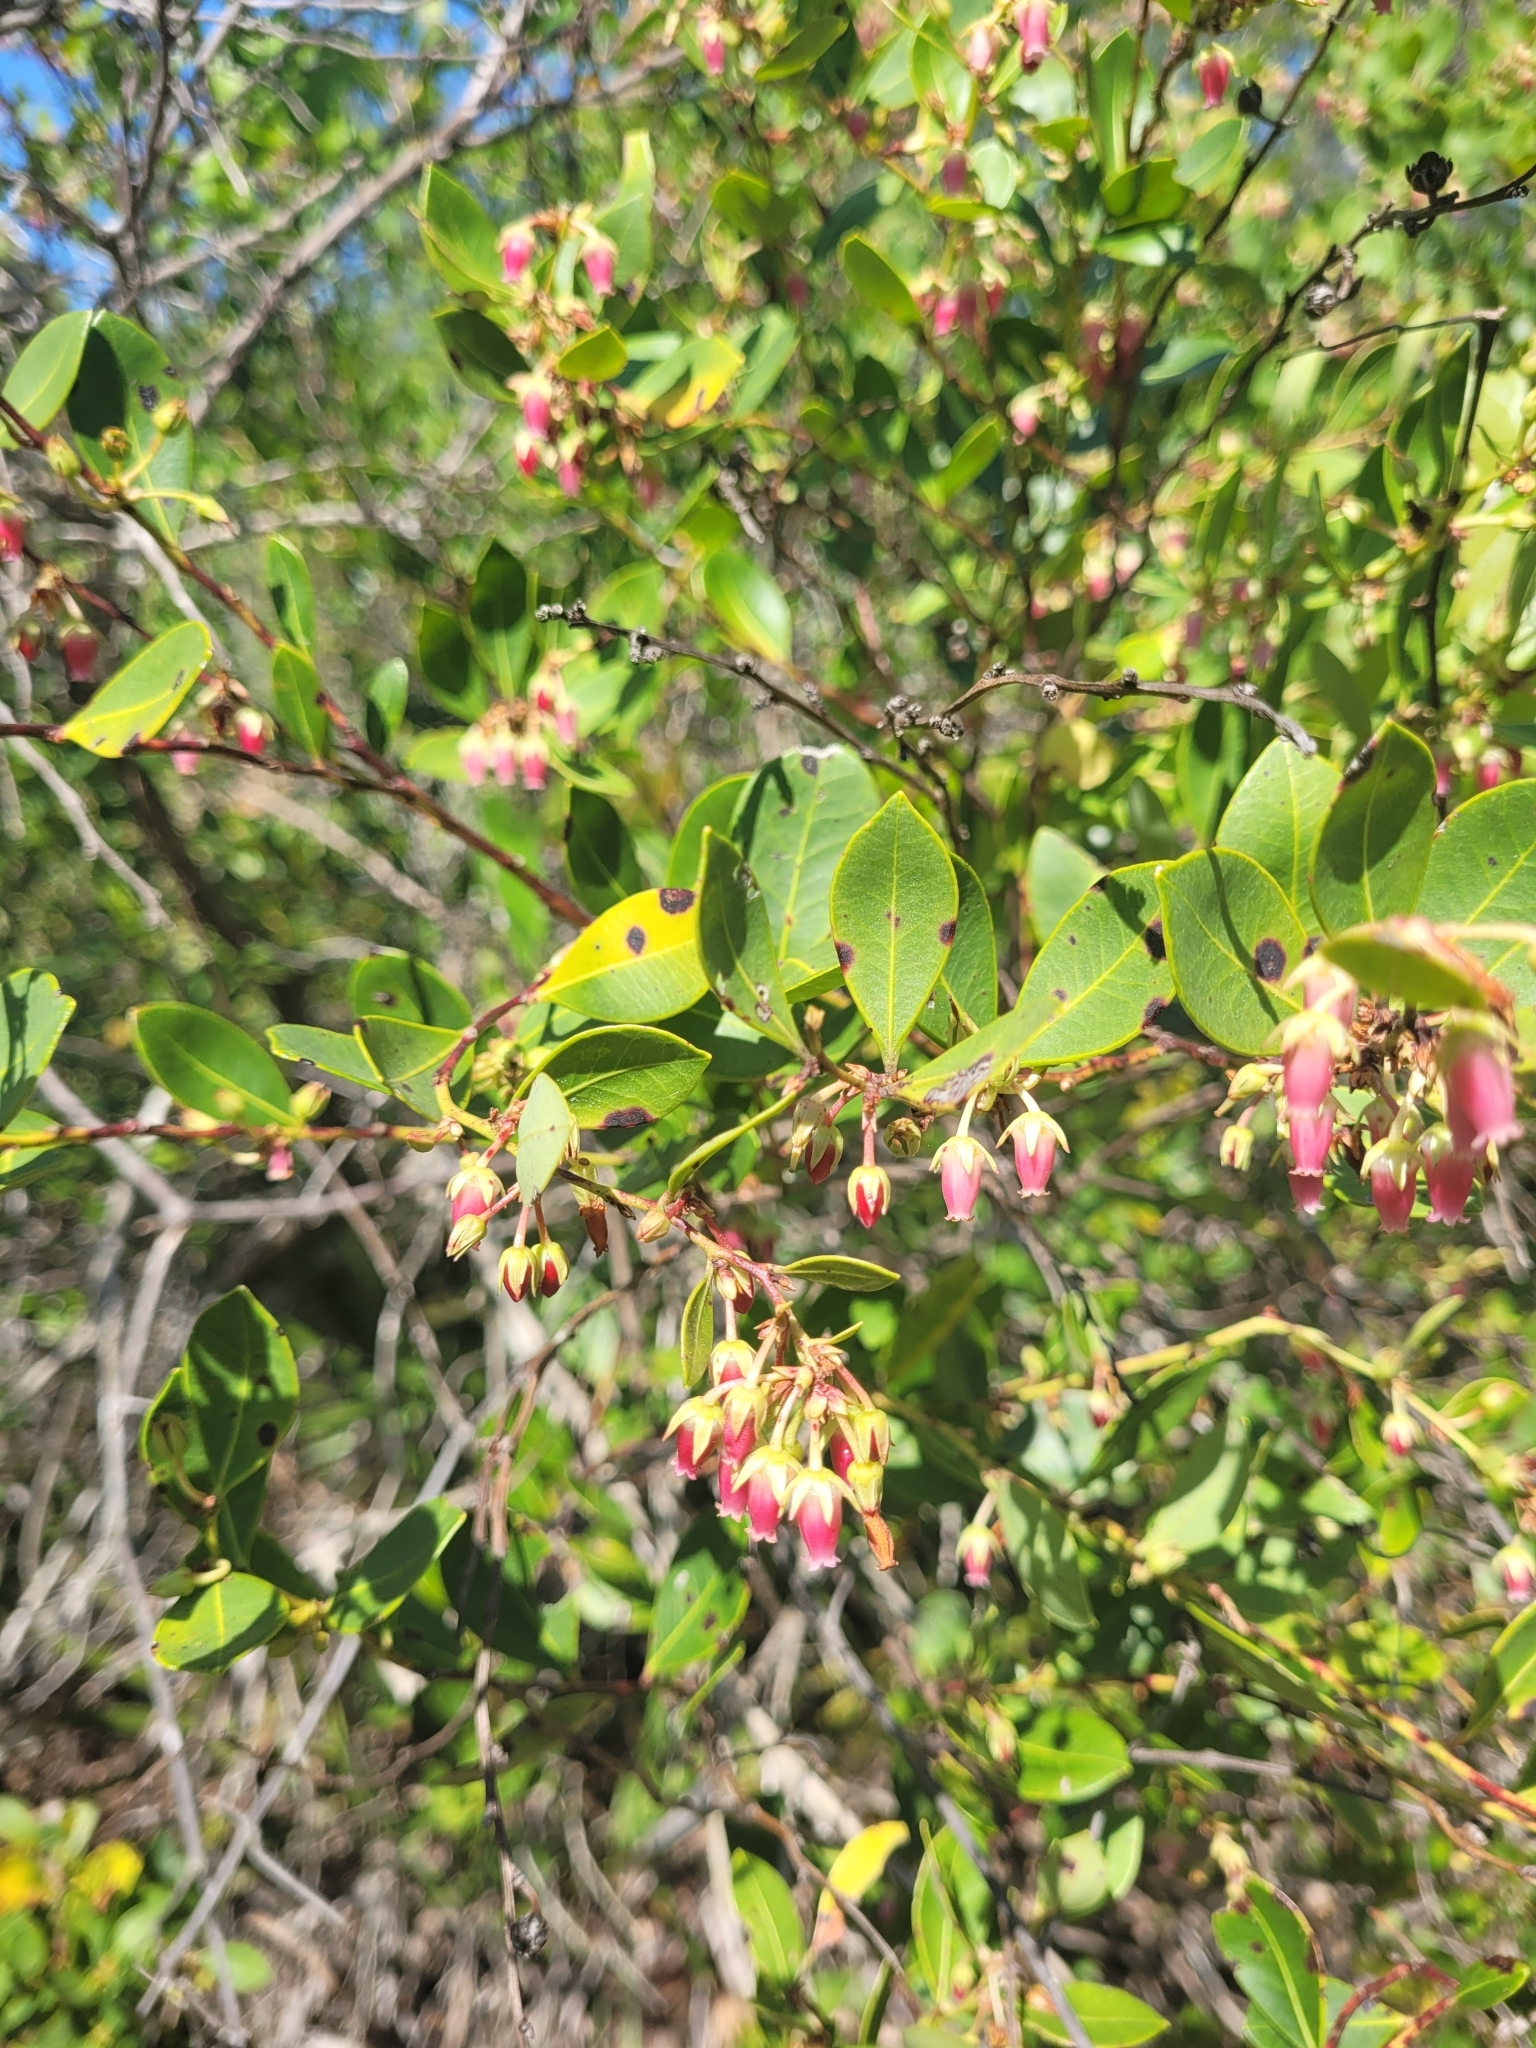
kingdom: Plantae
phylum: Tracheophyta
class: Magnoliopsida
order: Ericales
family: Ericaceae
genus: Lyonia
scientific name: Lyonia lucida
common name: Fetterbush
